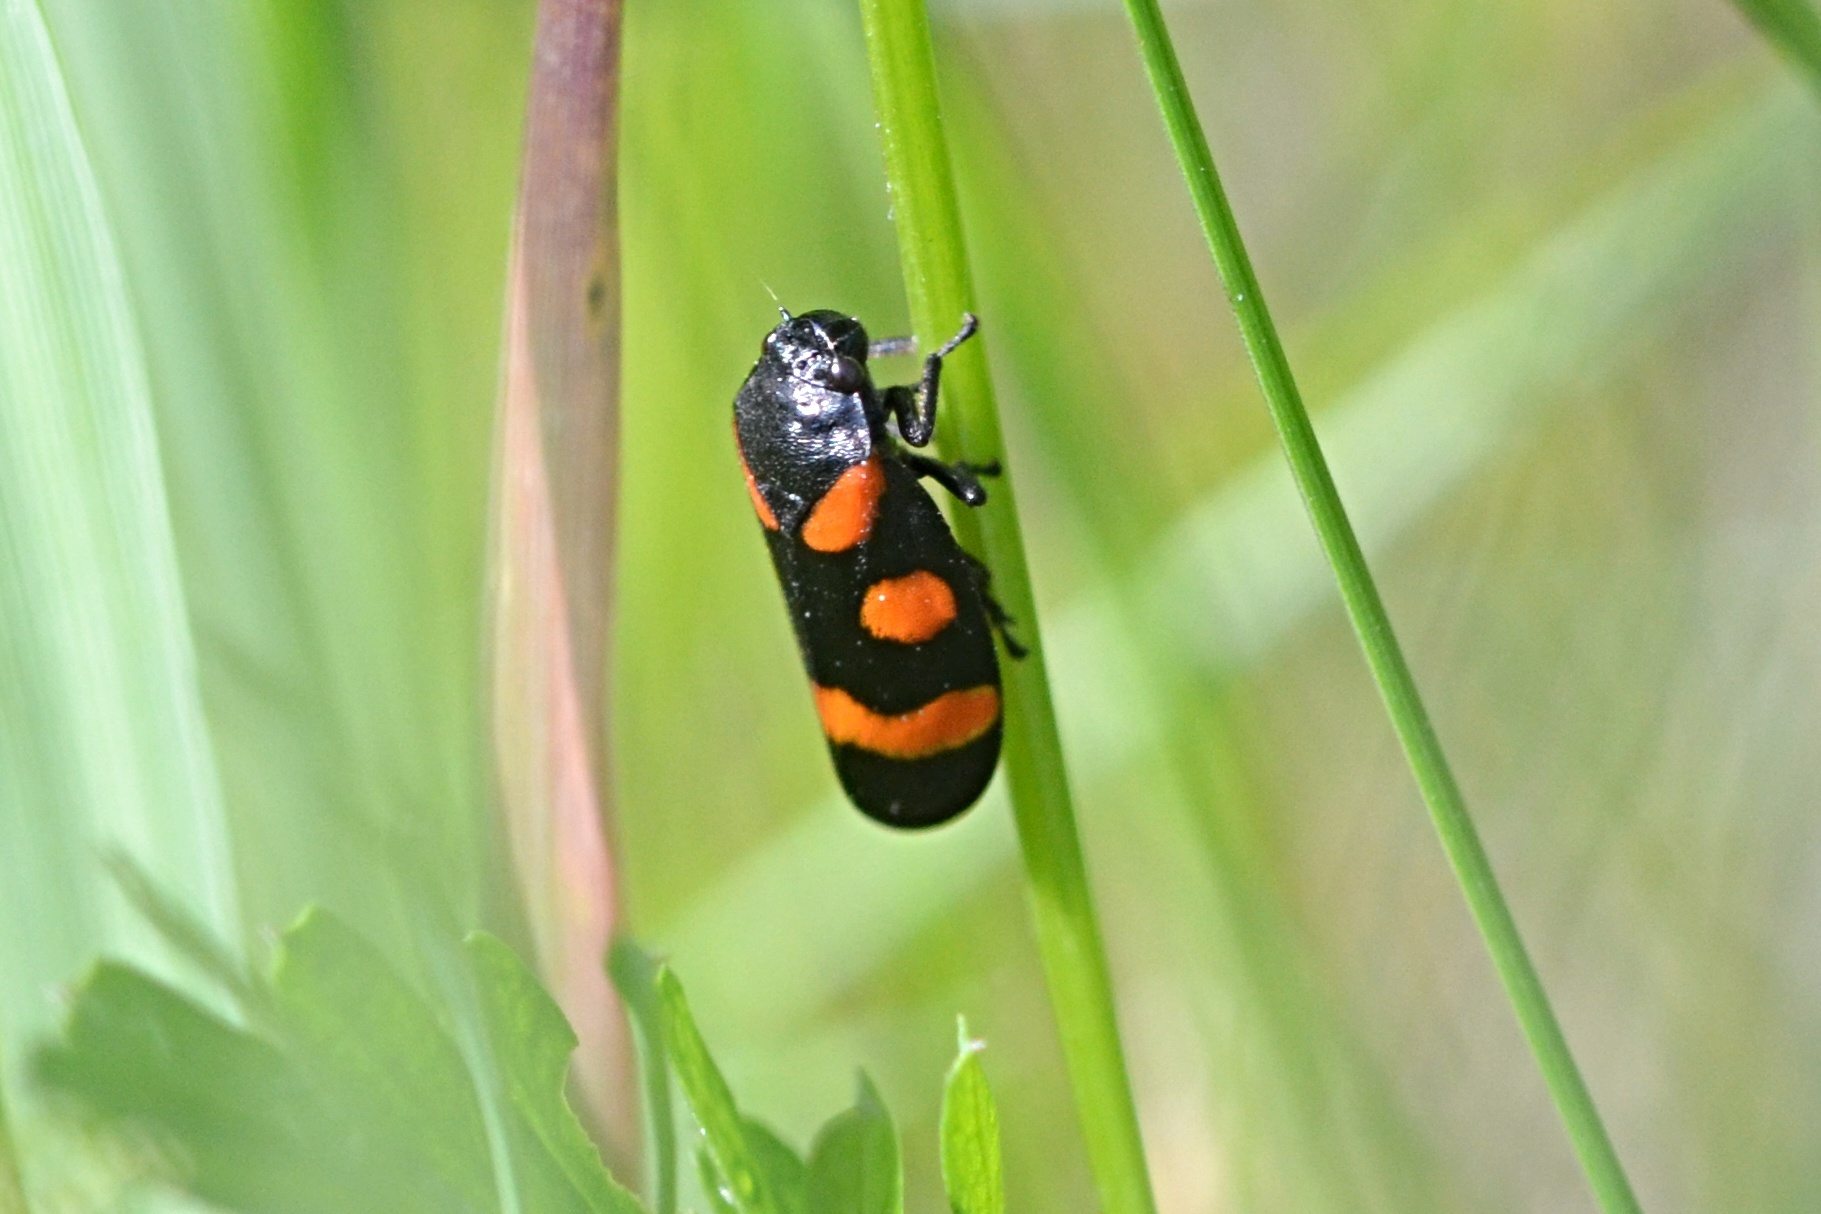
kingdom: Animalia
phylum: Arthropoda
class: Insecta
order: Hemiptera
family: Cercopidae
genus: Cercopis
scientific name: Cercopis sanguinolenta
